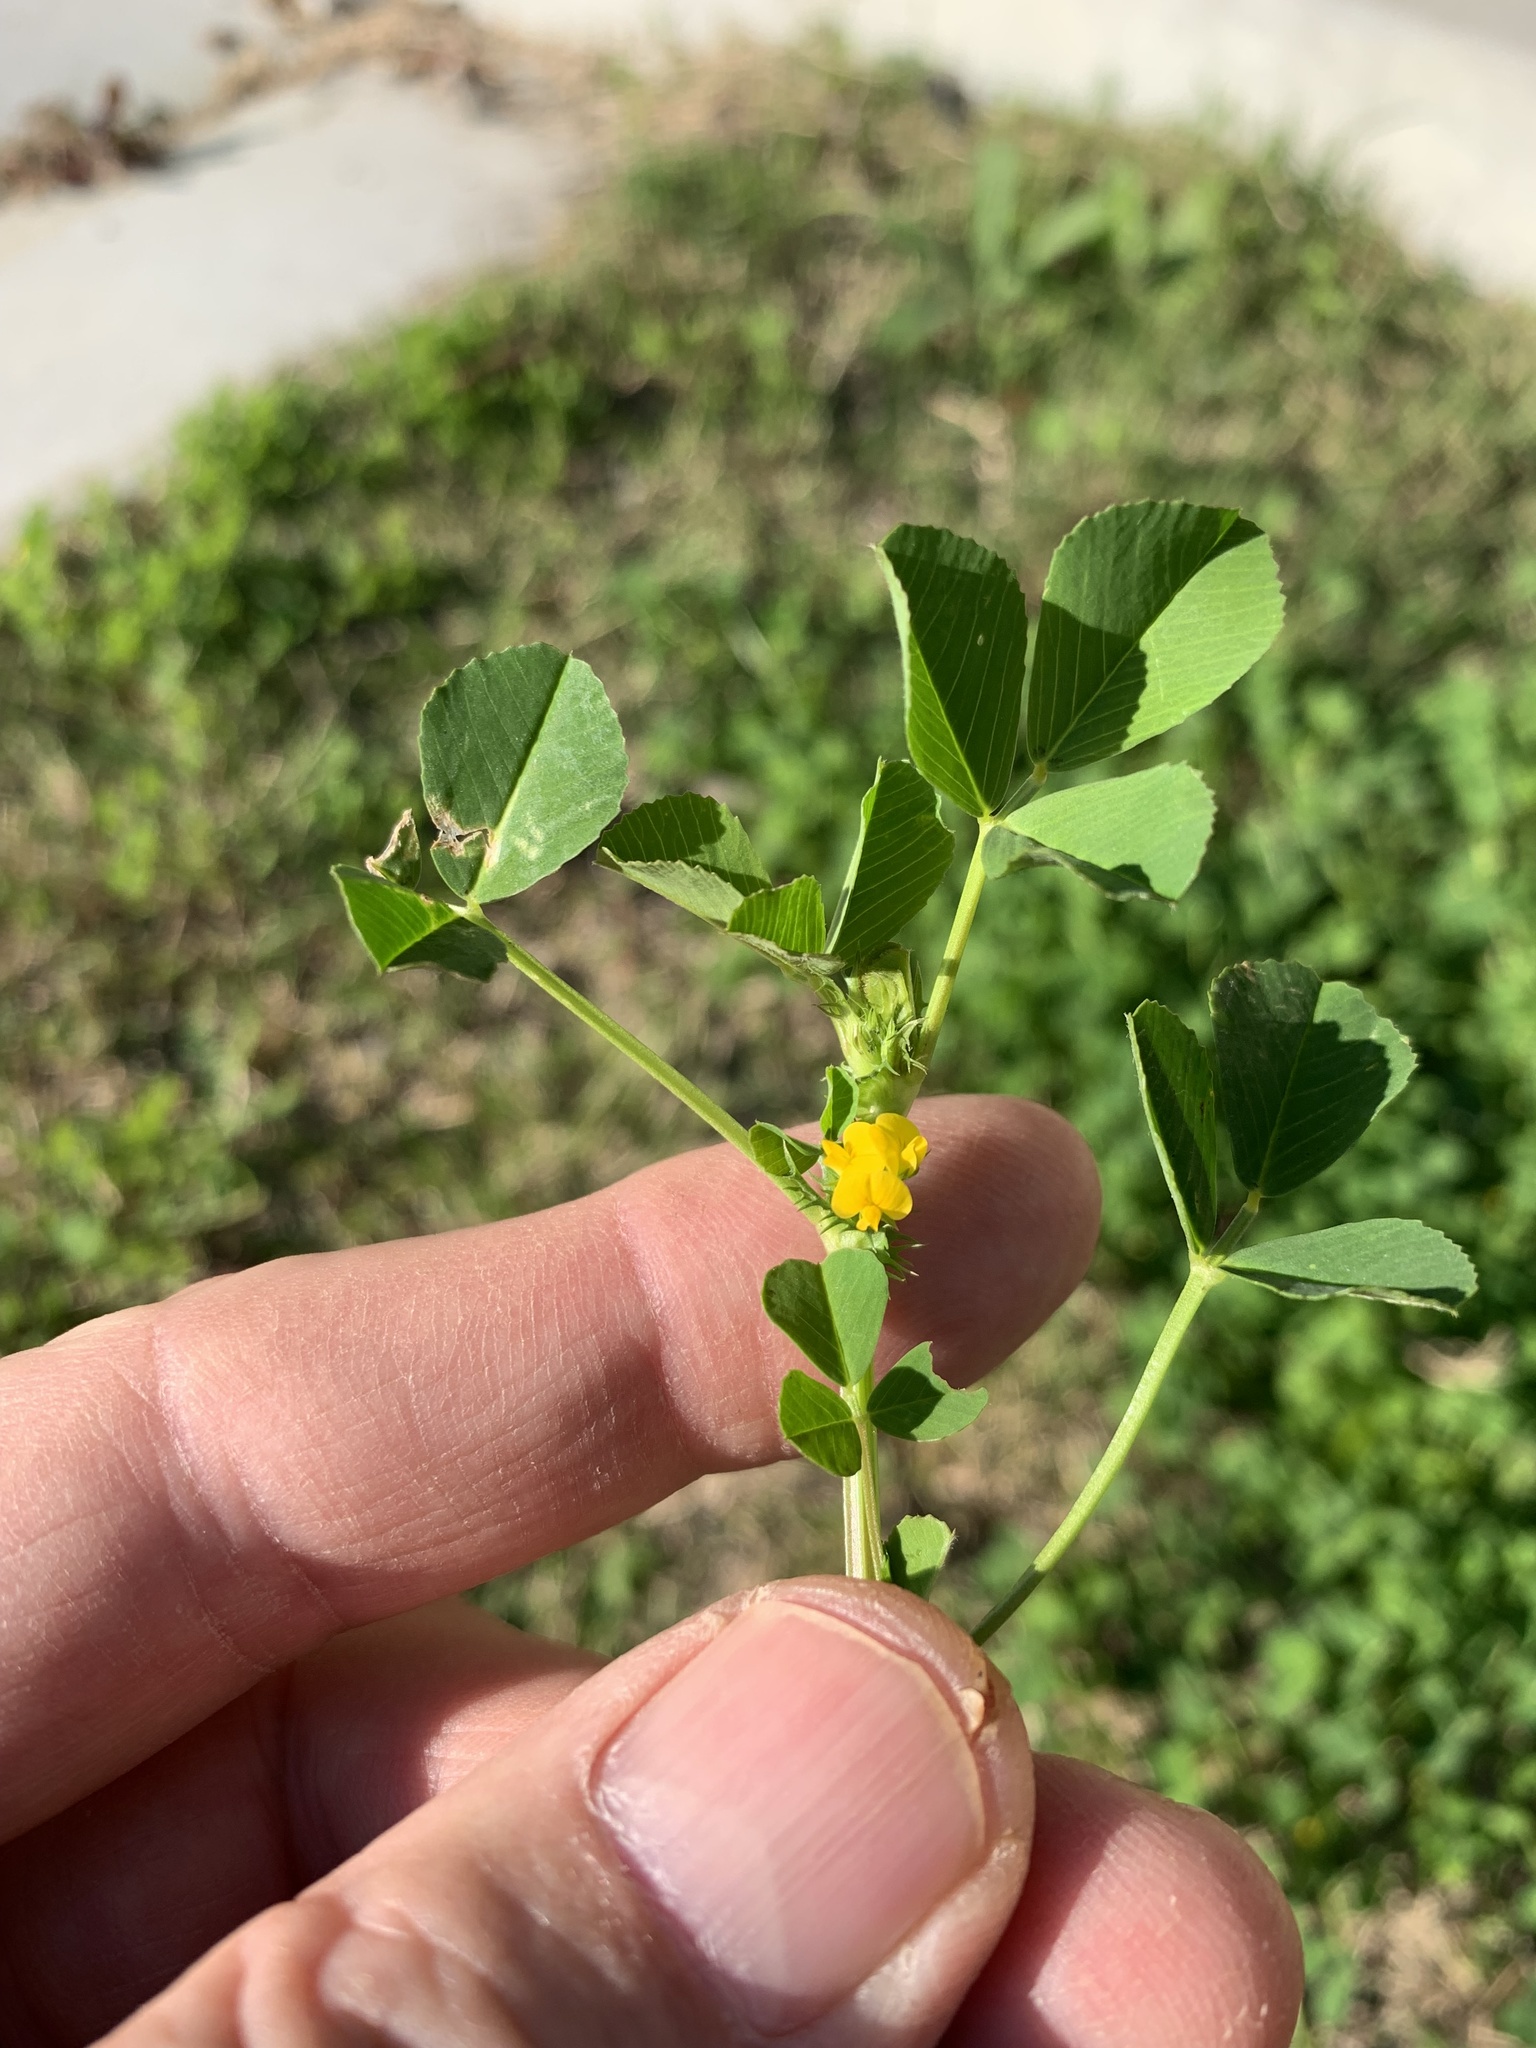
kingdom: Plantae
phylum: Tracheophyta
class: Magnoliopsida
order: Fabales
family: Fabaceae
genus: Medicago
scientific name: Medicago polymorpha
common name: Burclover
